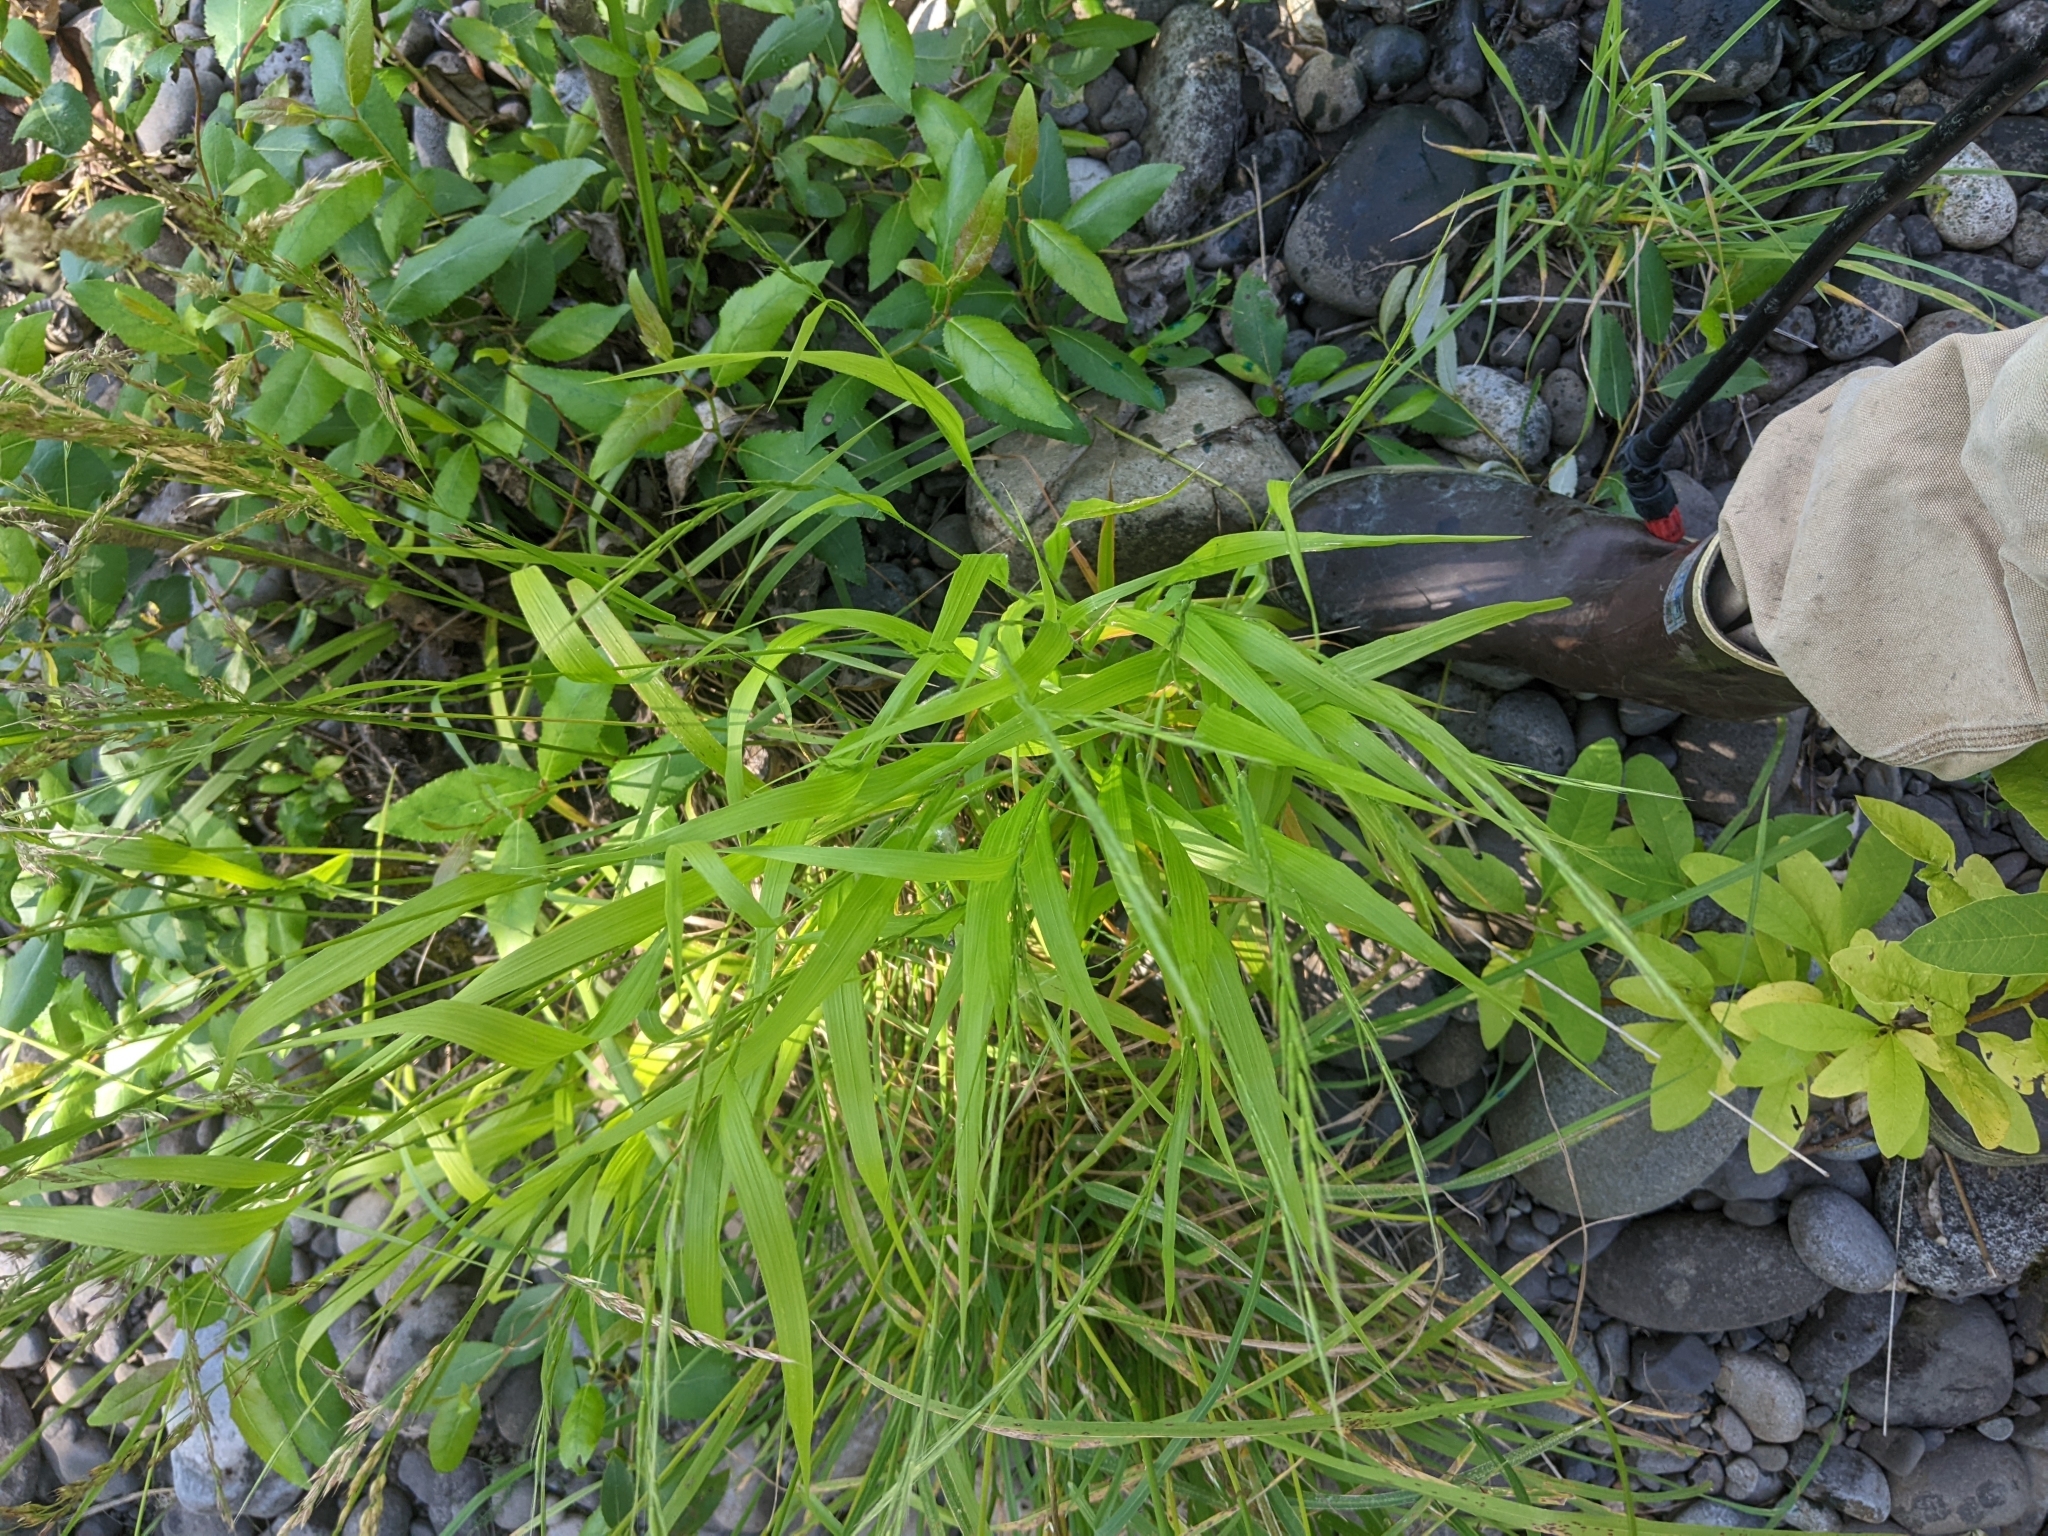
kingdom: Plantae
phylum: Tracheophyta
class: Liliopsida
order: Poales
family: Poaceae
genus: Brachypodium
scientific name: Brachypodium sylvaticum
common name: False-brome
